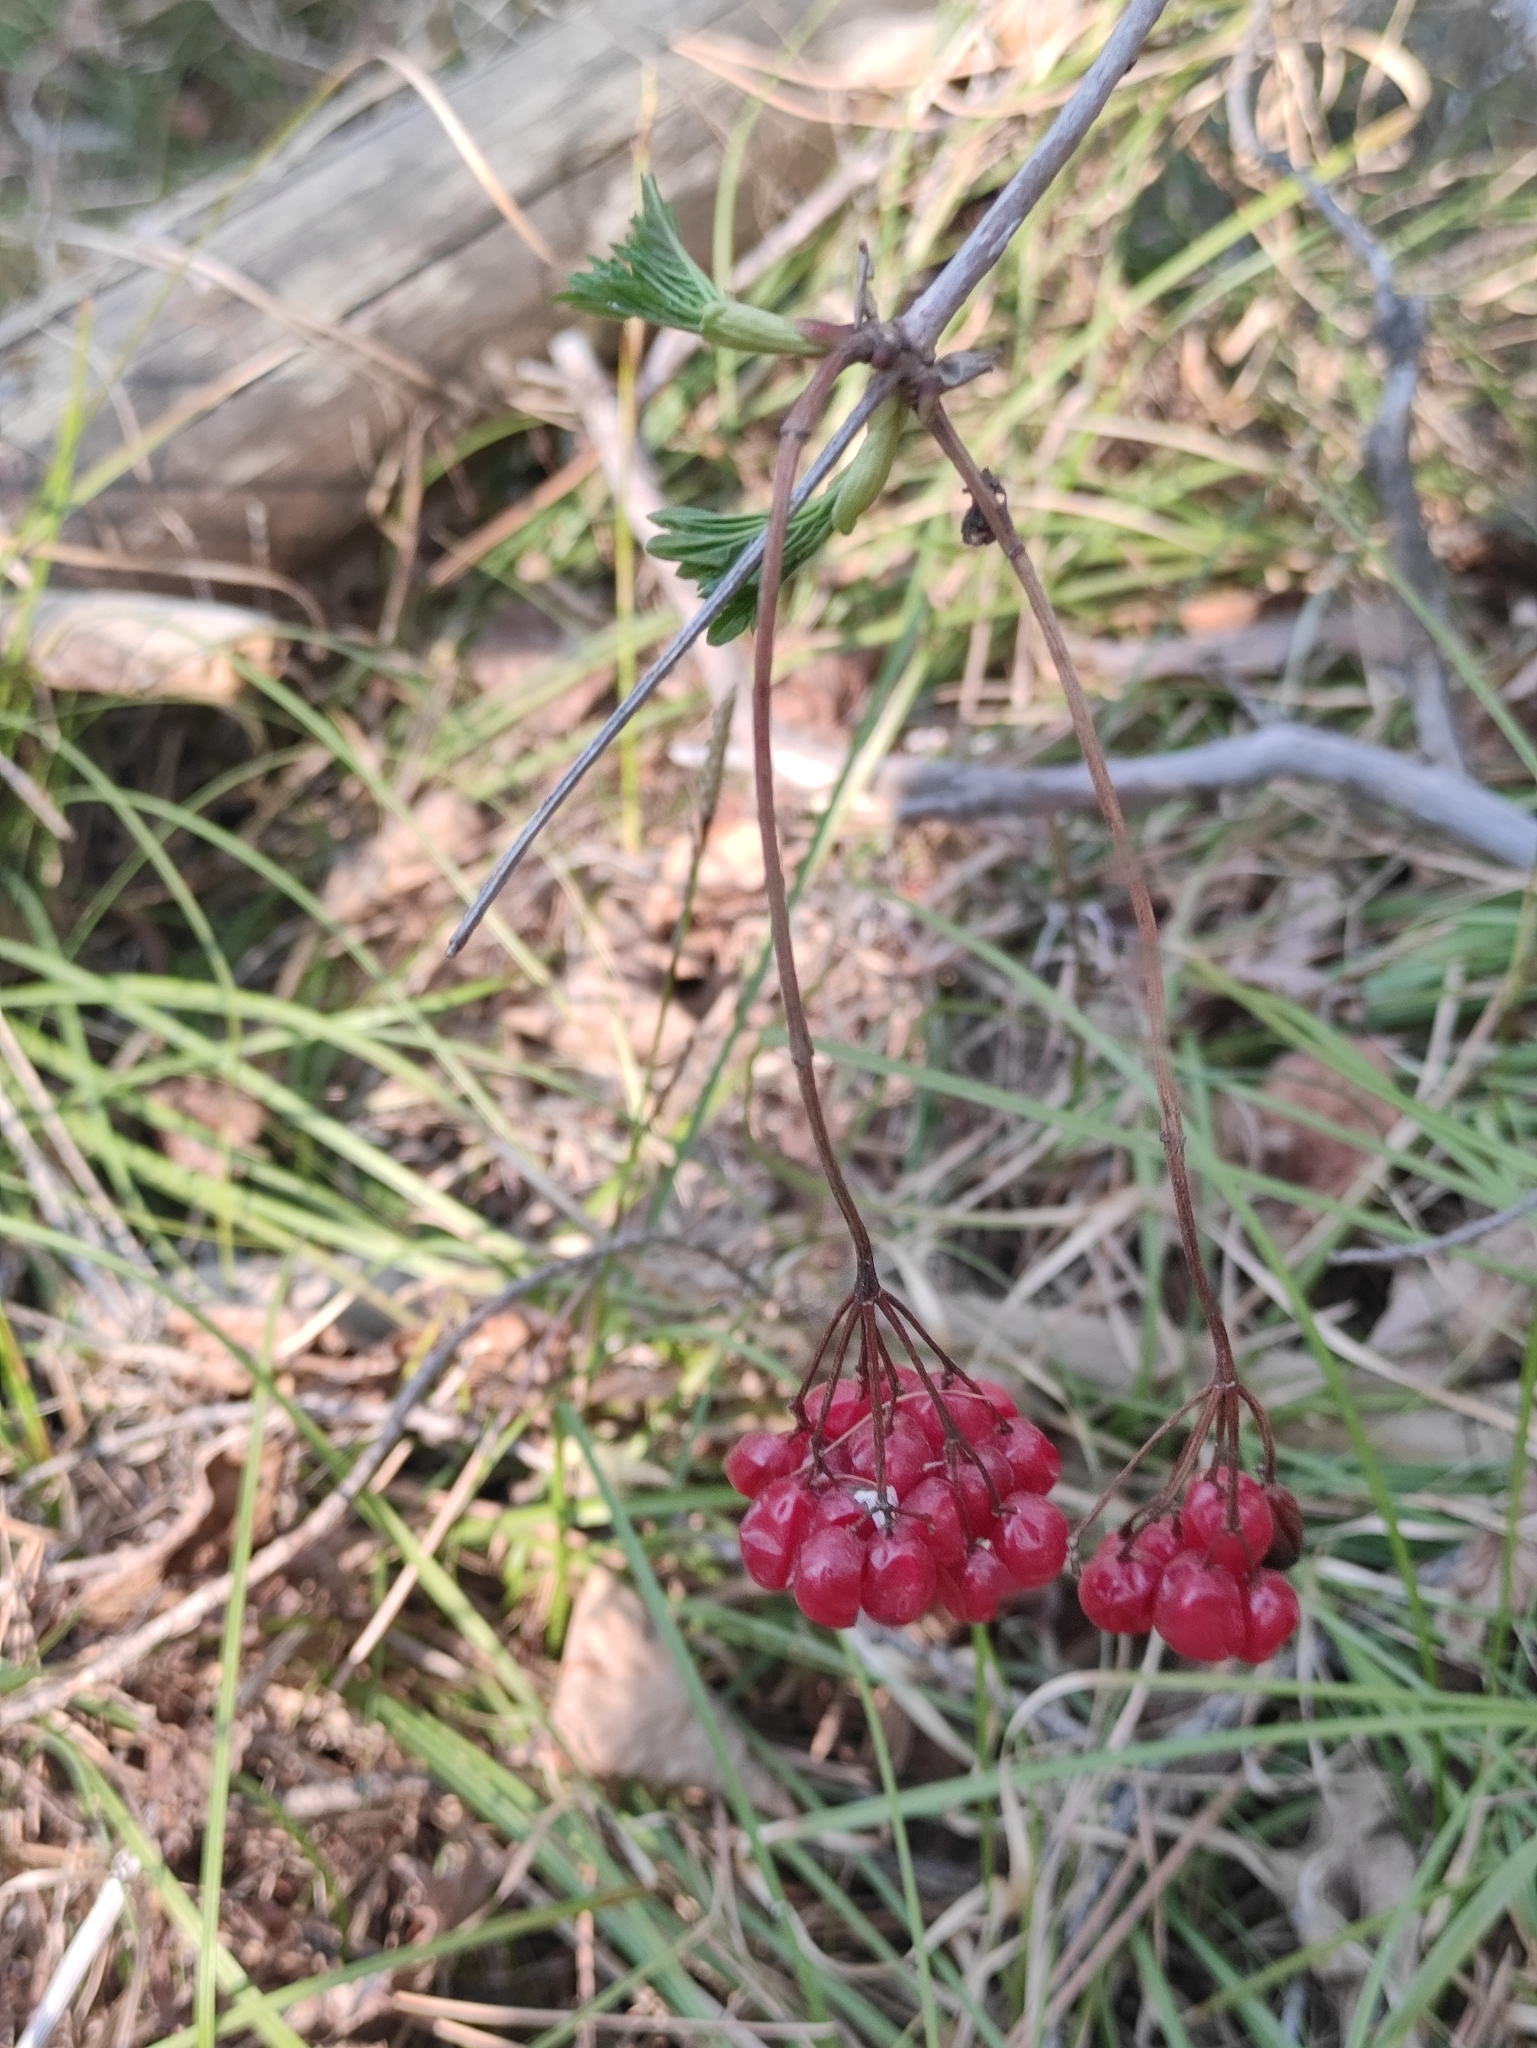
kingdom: Plantae
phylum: Tracheophyta
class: Magnoliopsida
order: Dipsacales
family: Viburnaceae
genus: Viburnum
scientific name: Viburnum opulus
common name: Guelder-rose
